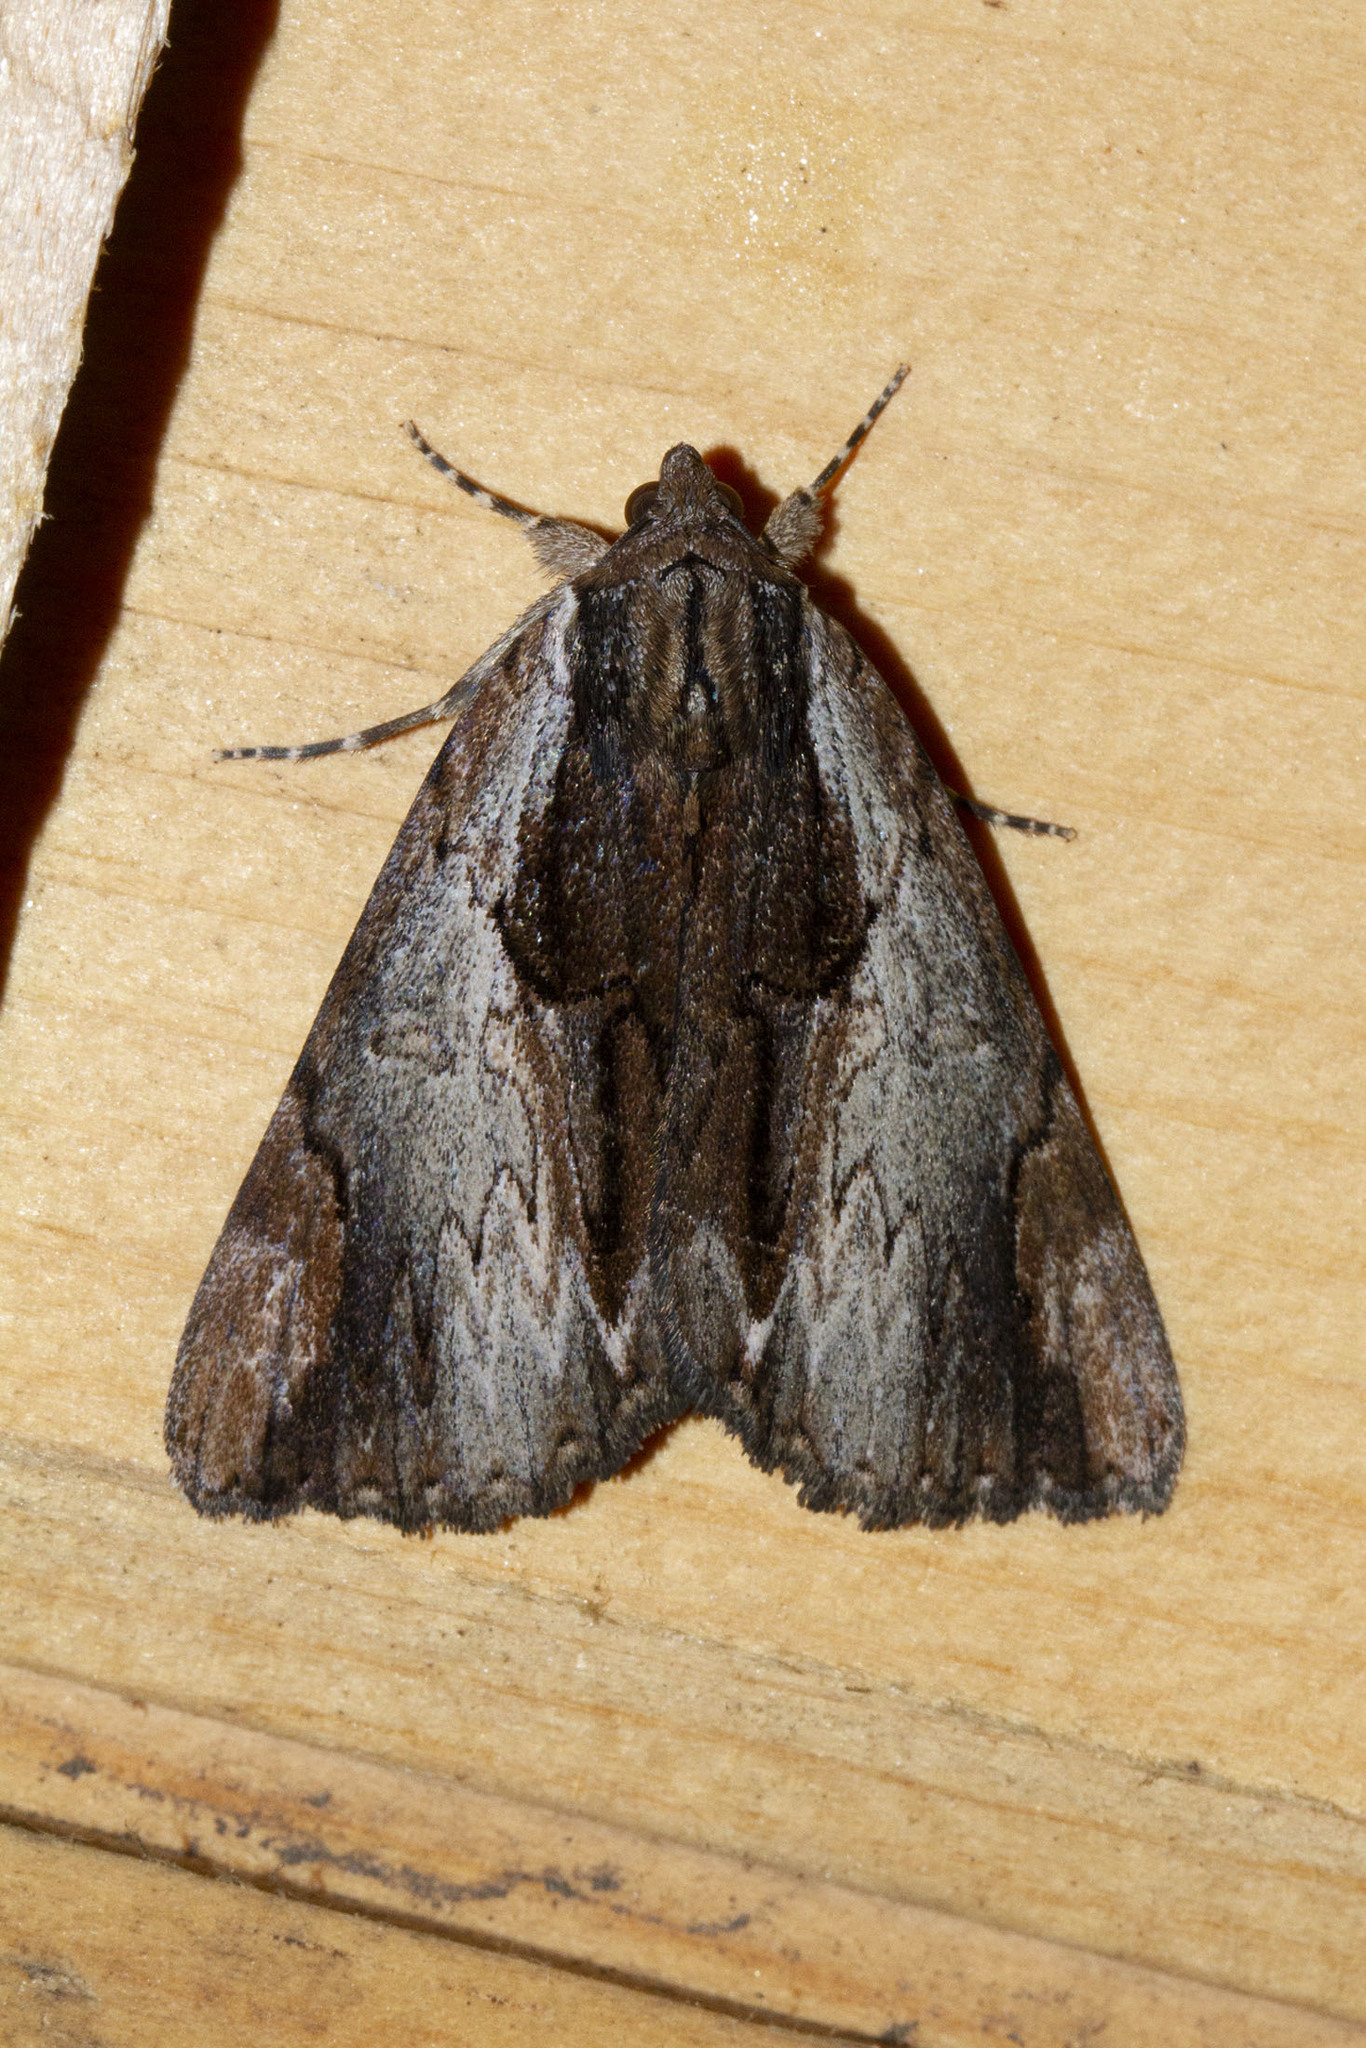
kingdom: Animalia
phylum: Arthropoda
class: Insecta
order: Lepidoptera
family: Erebidae
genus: Catocala
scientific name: Catocala ultronia
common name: Ultronia underwing
